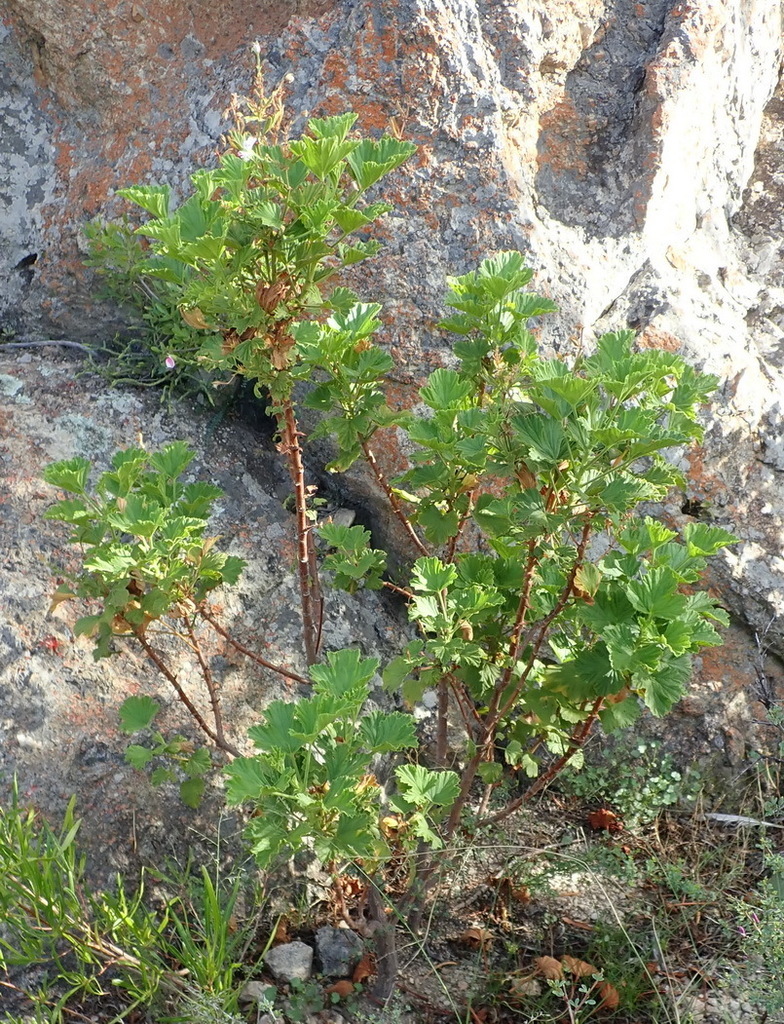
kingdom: Plantae
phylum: Tracheophyta
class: Magnoliopsida
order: Geraniales
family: Geraniaceae
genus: Pelargonium
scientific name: Pelargonium ribifolium
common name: Currant-leaf pelargonium
